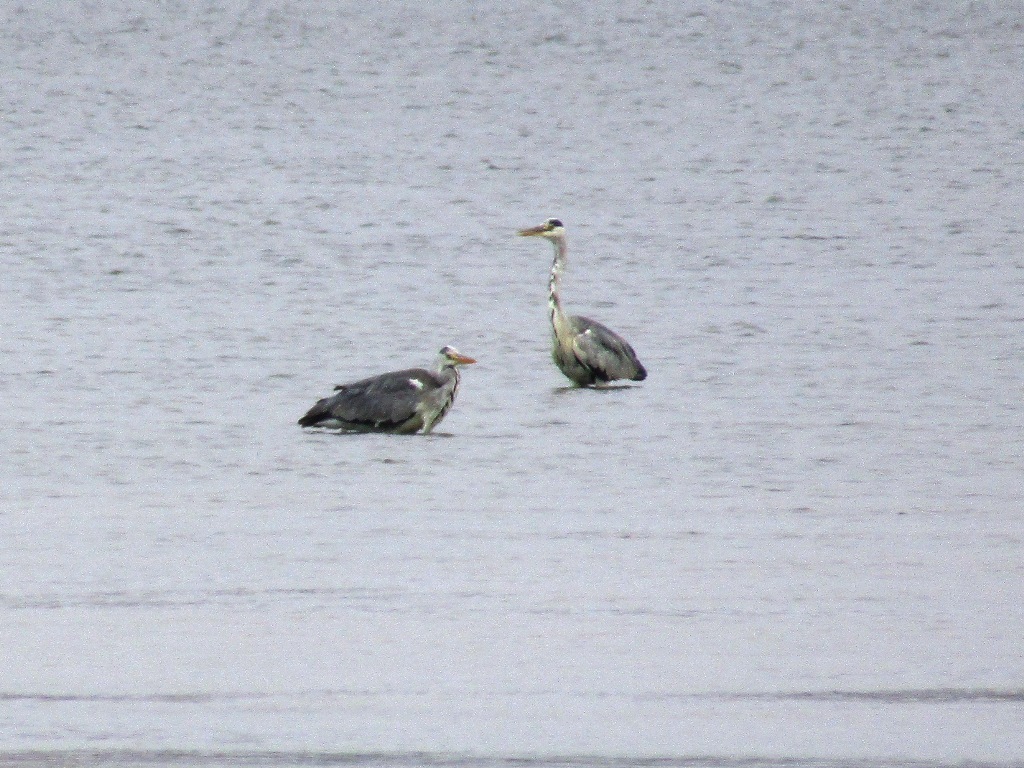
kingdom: Animalia
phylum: Chordata
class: Aves
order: Pelecaniformes
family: Ardeidae
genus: Ardea
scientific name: Ardea cinerea
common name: Grey heron
